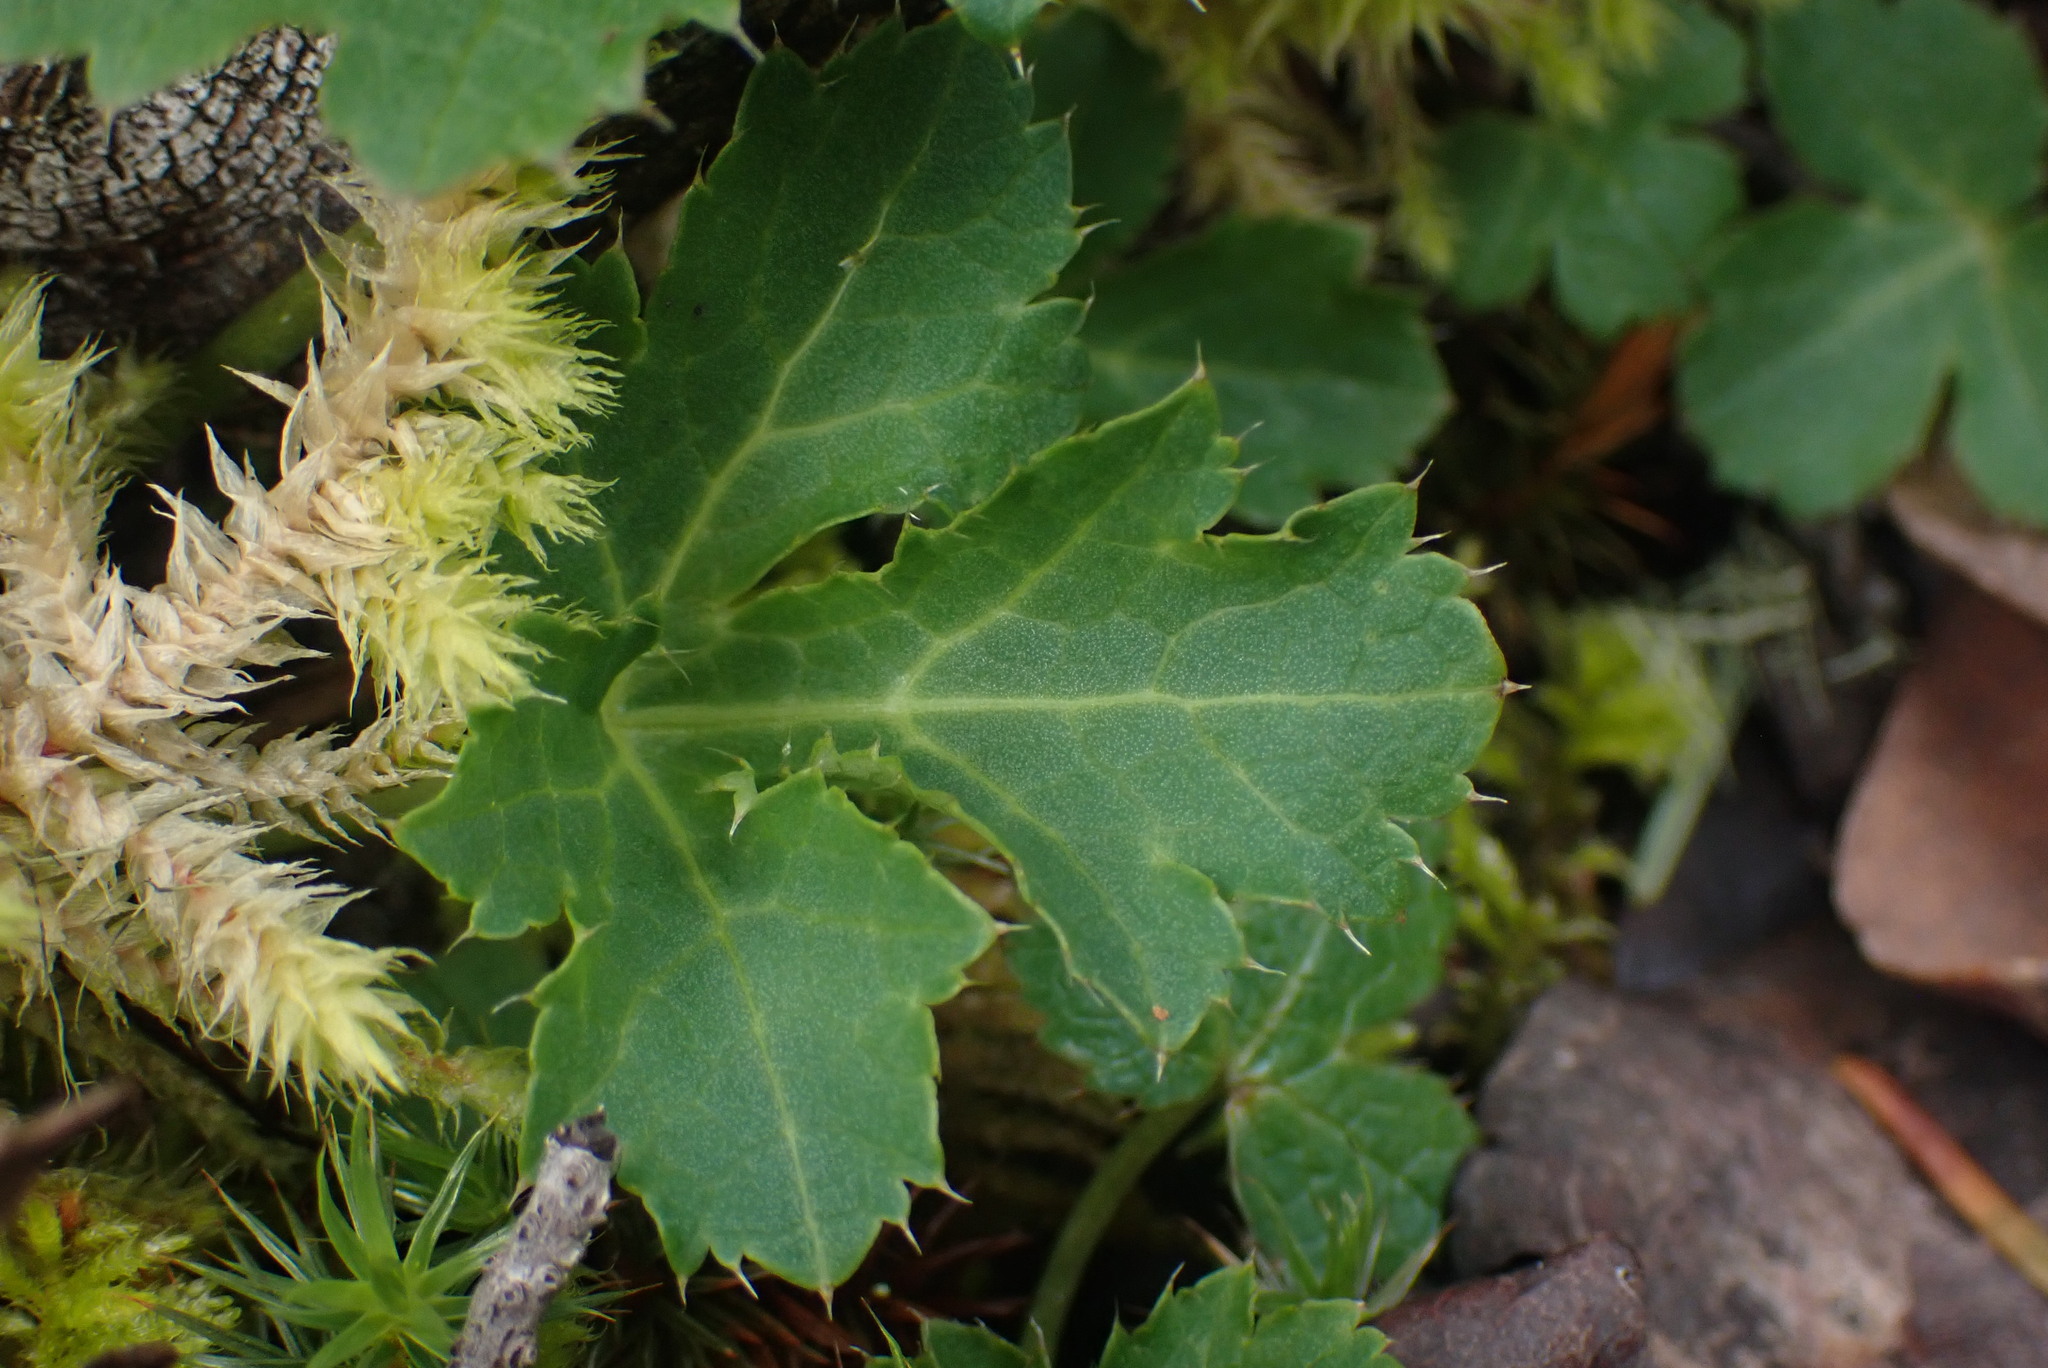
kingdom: Plantae
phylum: Tracheophyta
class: Magnoliopsida
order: Apiales
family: Apiaceae
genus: Sanicula
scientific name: Sanicula crassicaulis
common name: Western snakeroot
